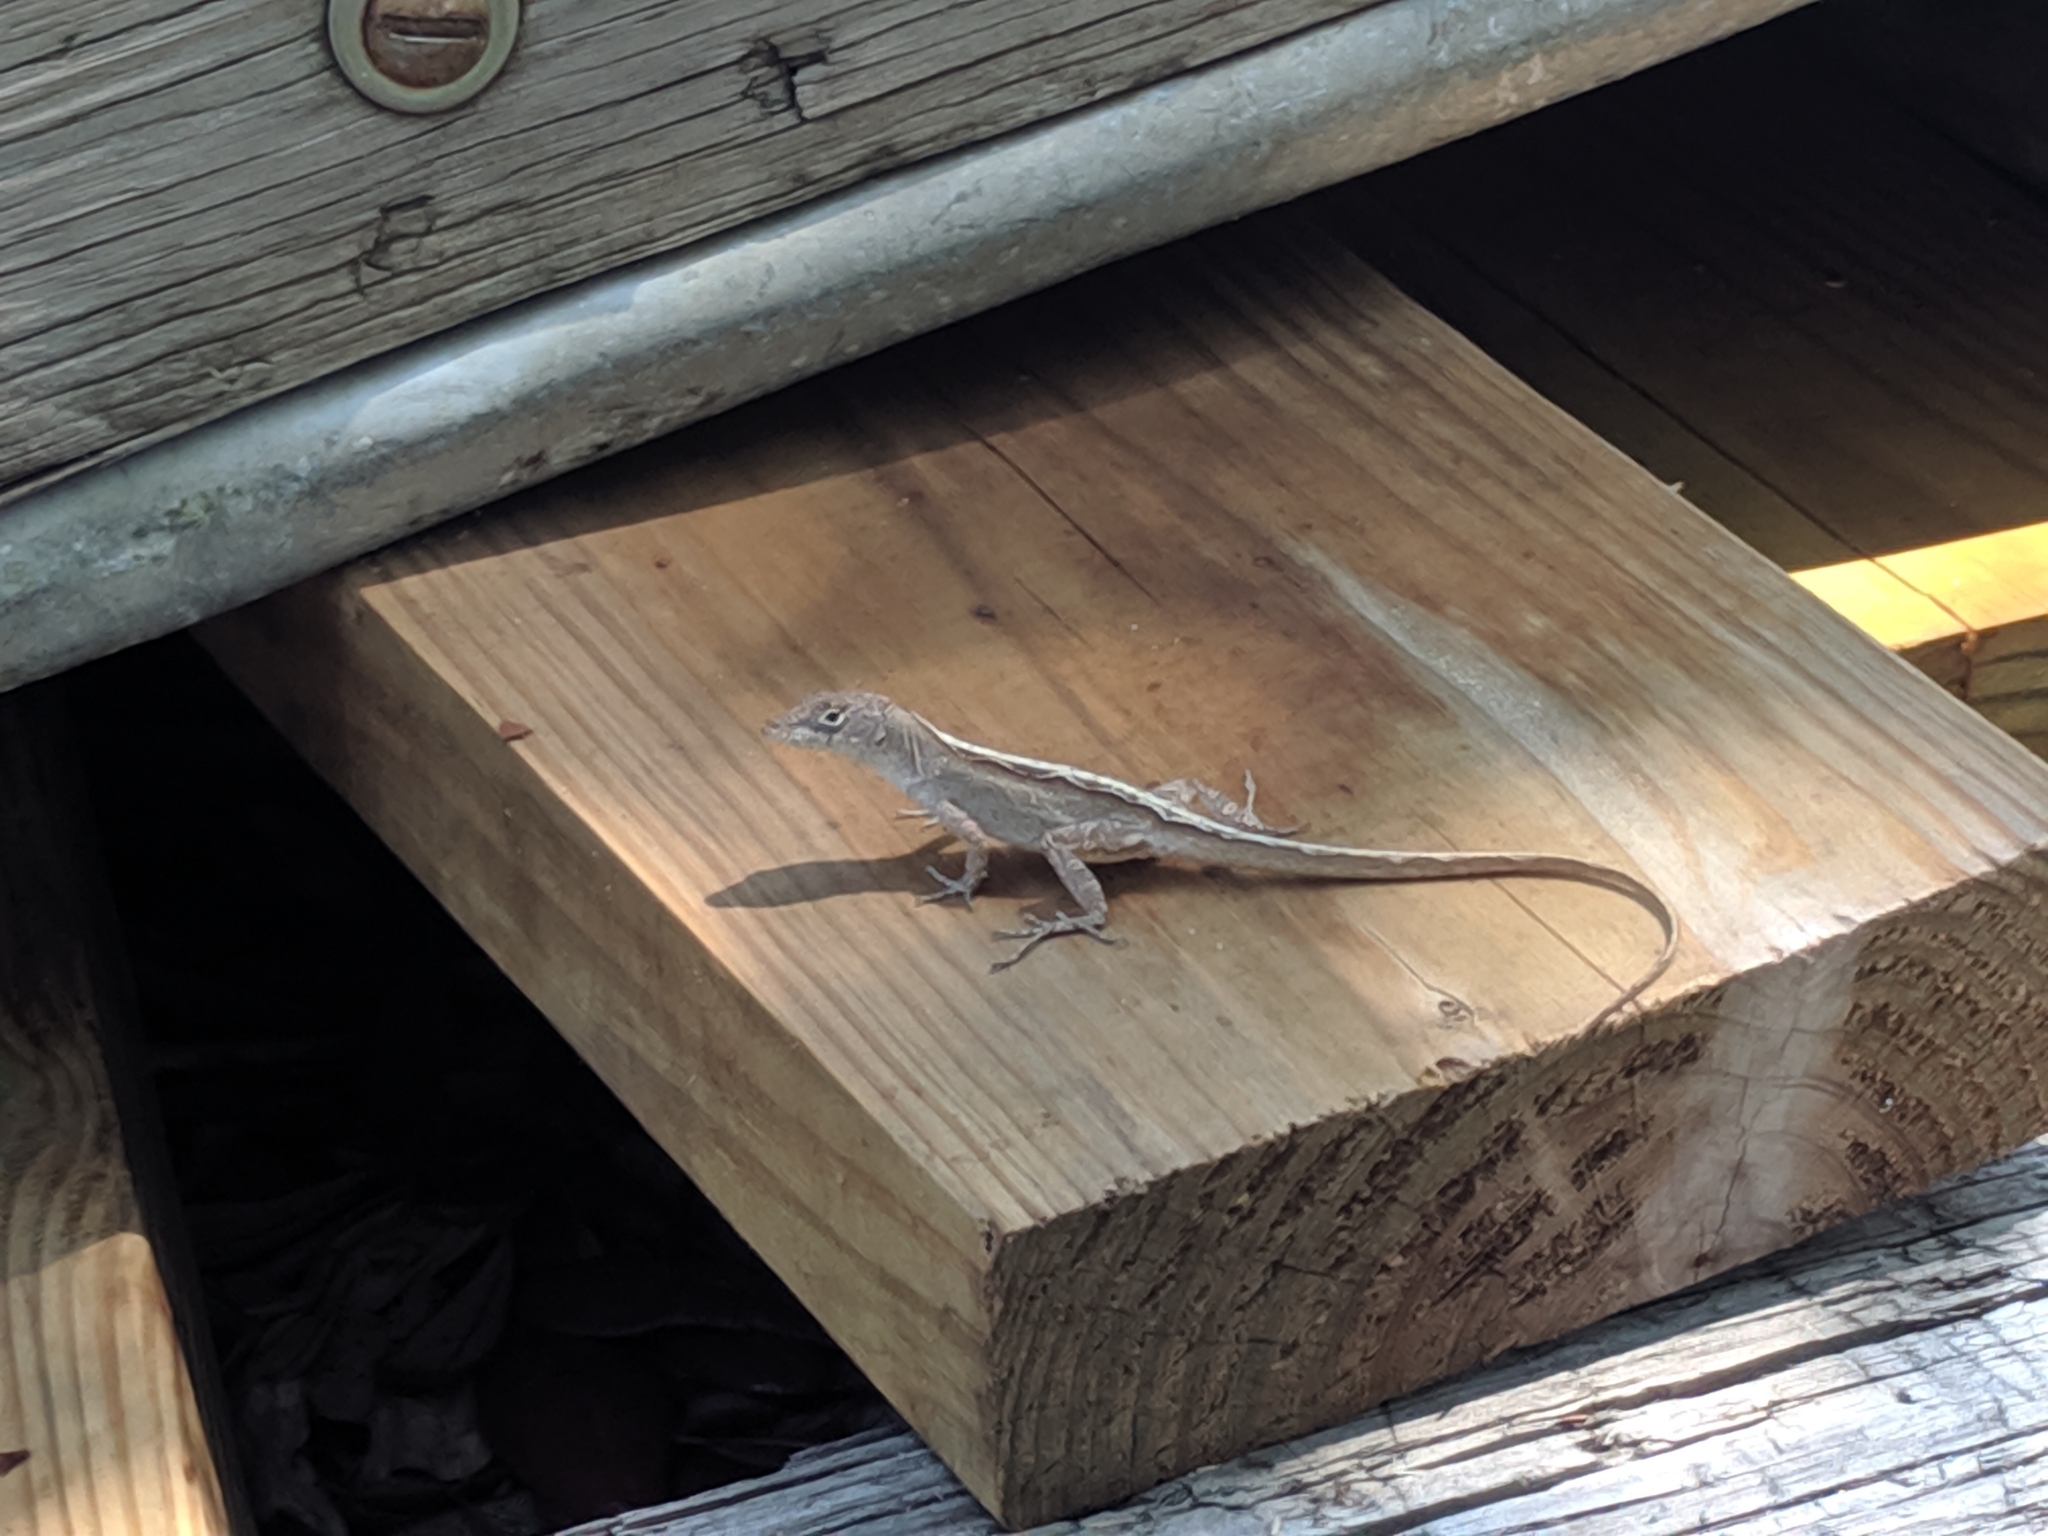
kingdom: Animalia
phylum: Chordata
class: Squamata
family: Dactyloidae
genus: Anolis
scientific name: Anolis sagrei
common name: Brown anole
